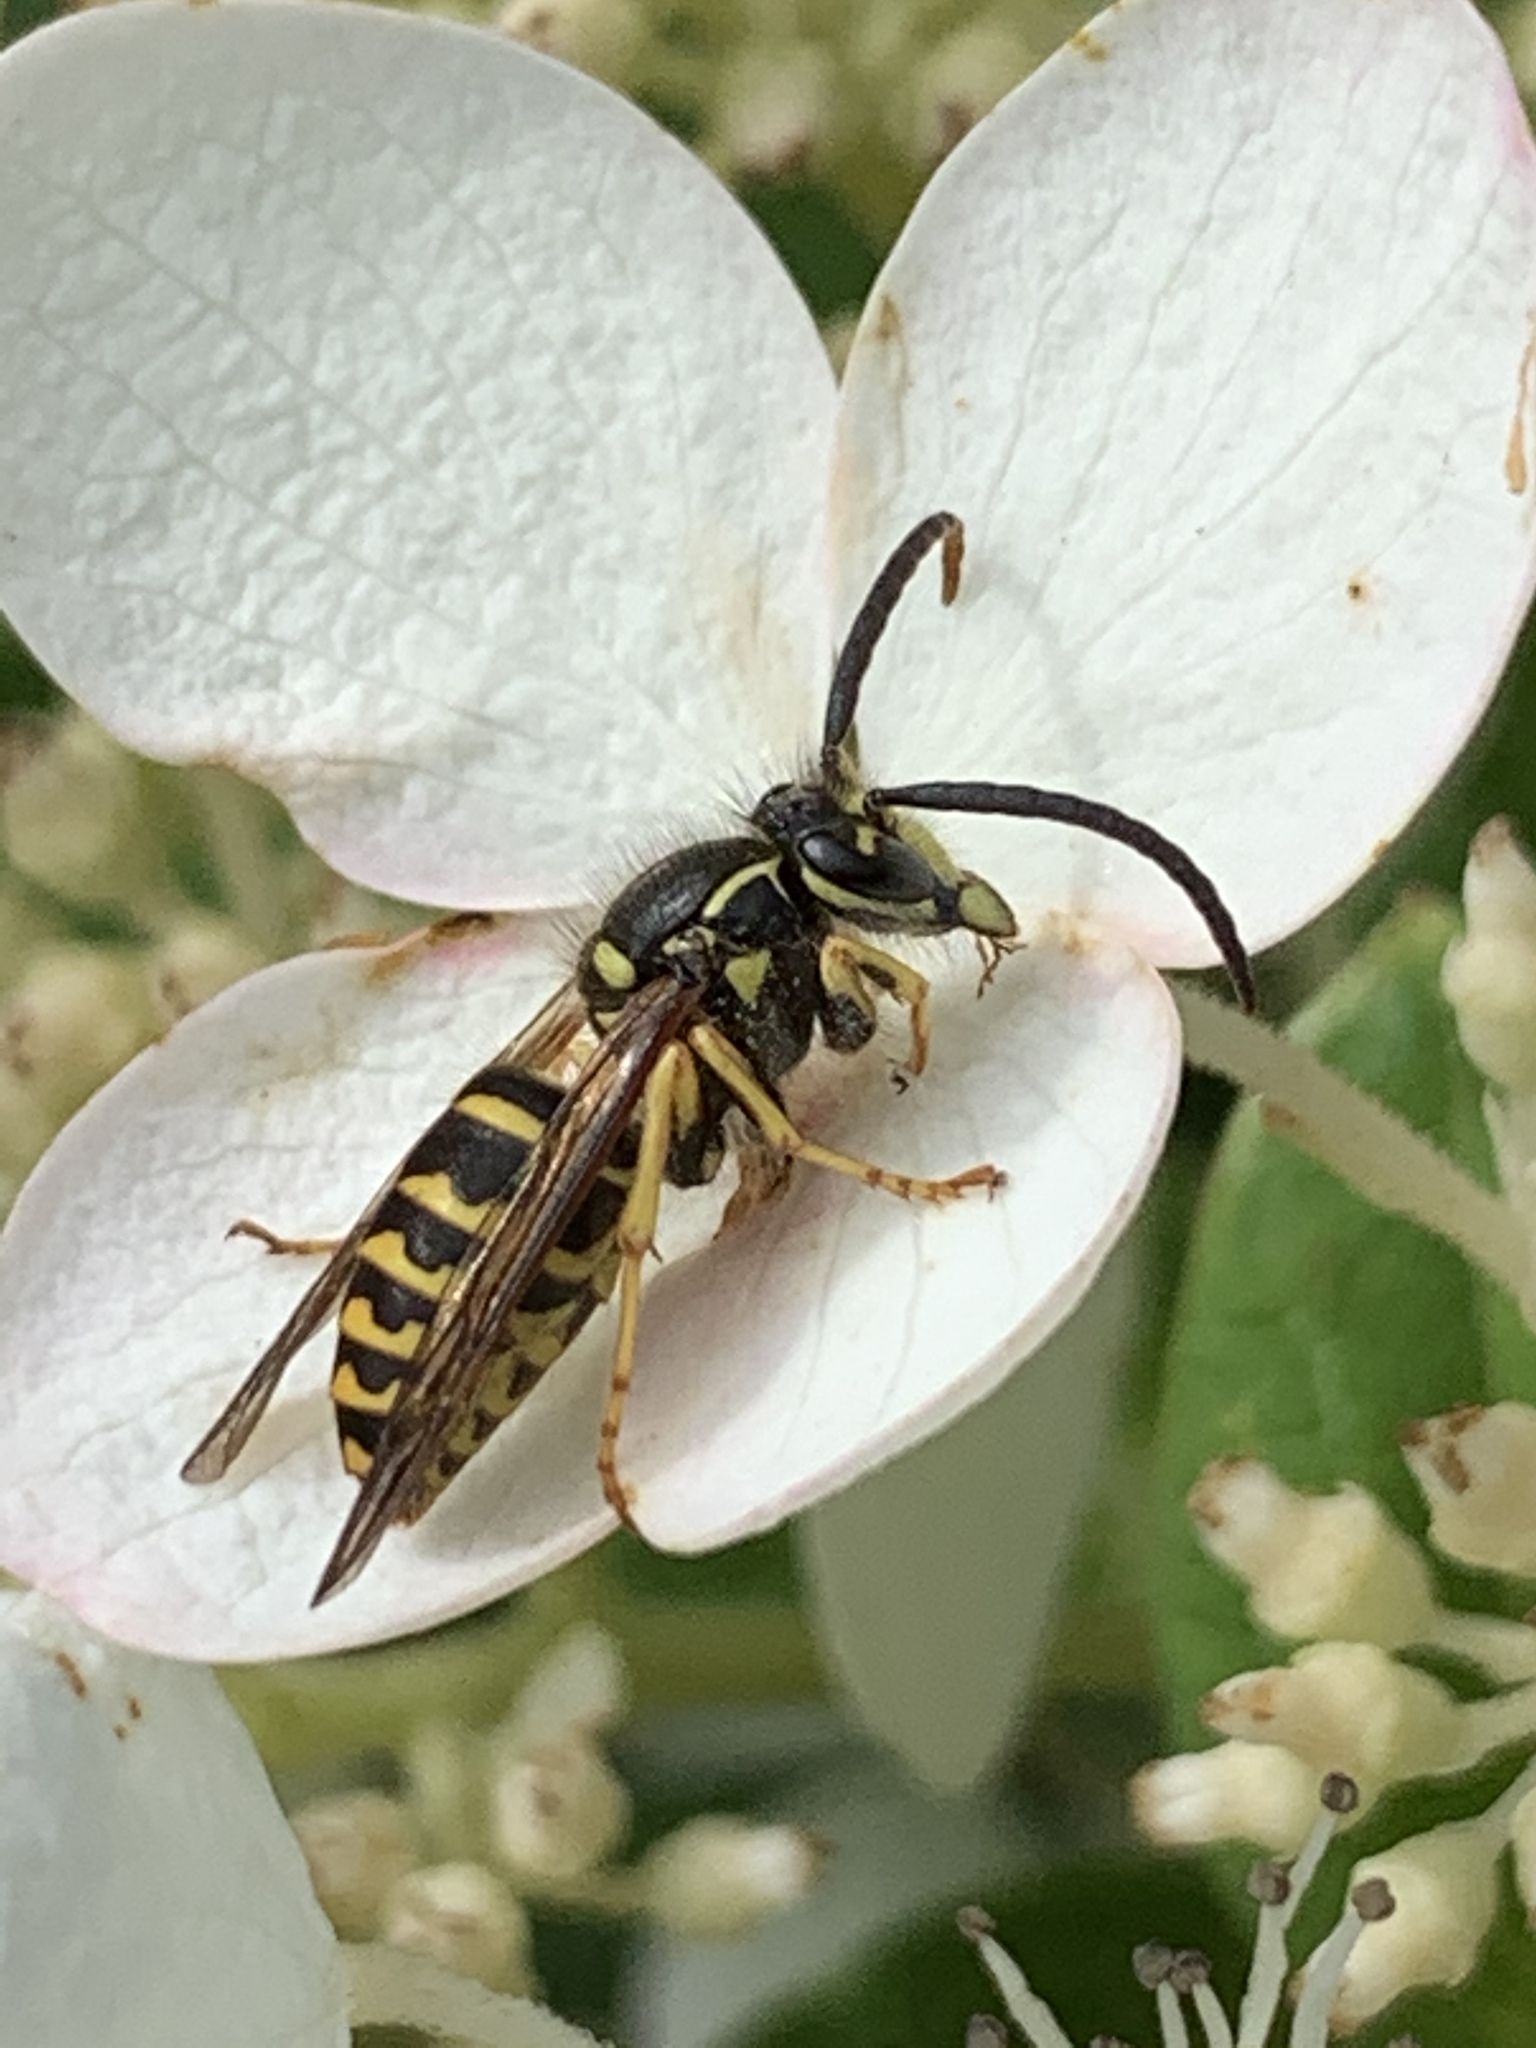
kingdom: Animalia
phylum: Arthropoda
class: Insecta
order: Hymenoptera
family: Vespidae
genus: Dolichovespula
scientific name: Dolichovespula arenaria
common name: Aerial yellowjacket
